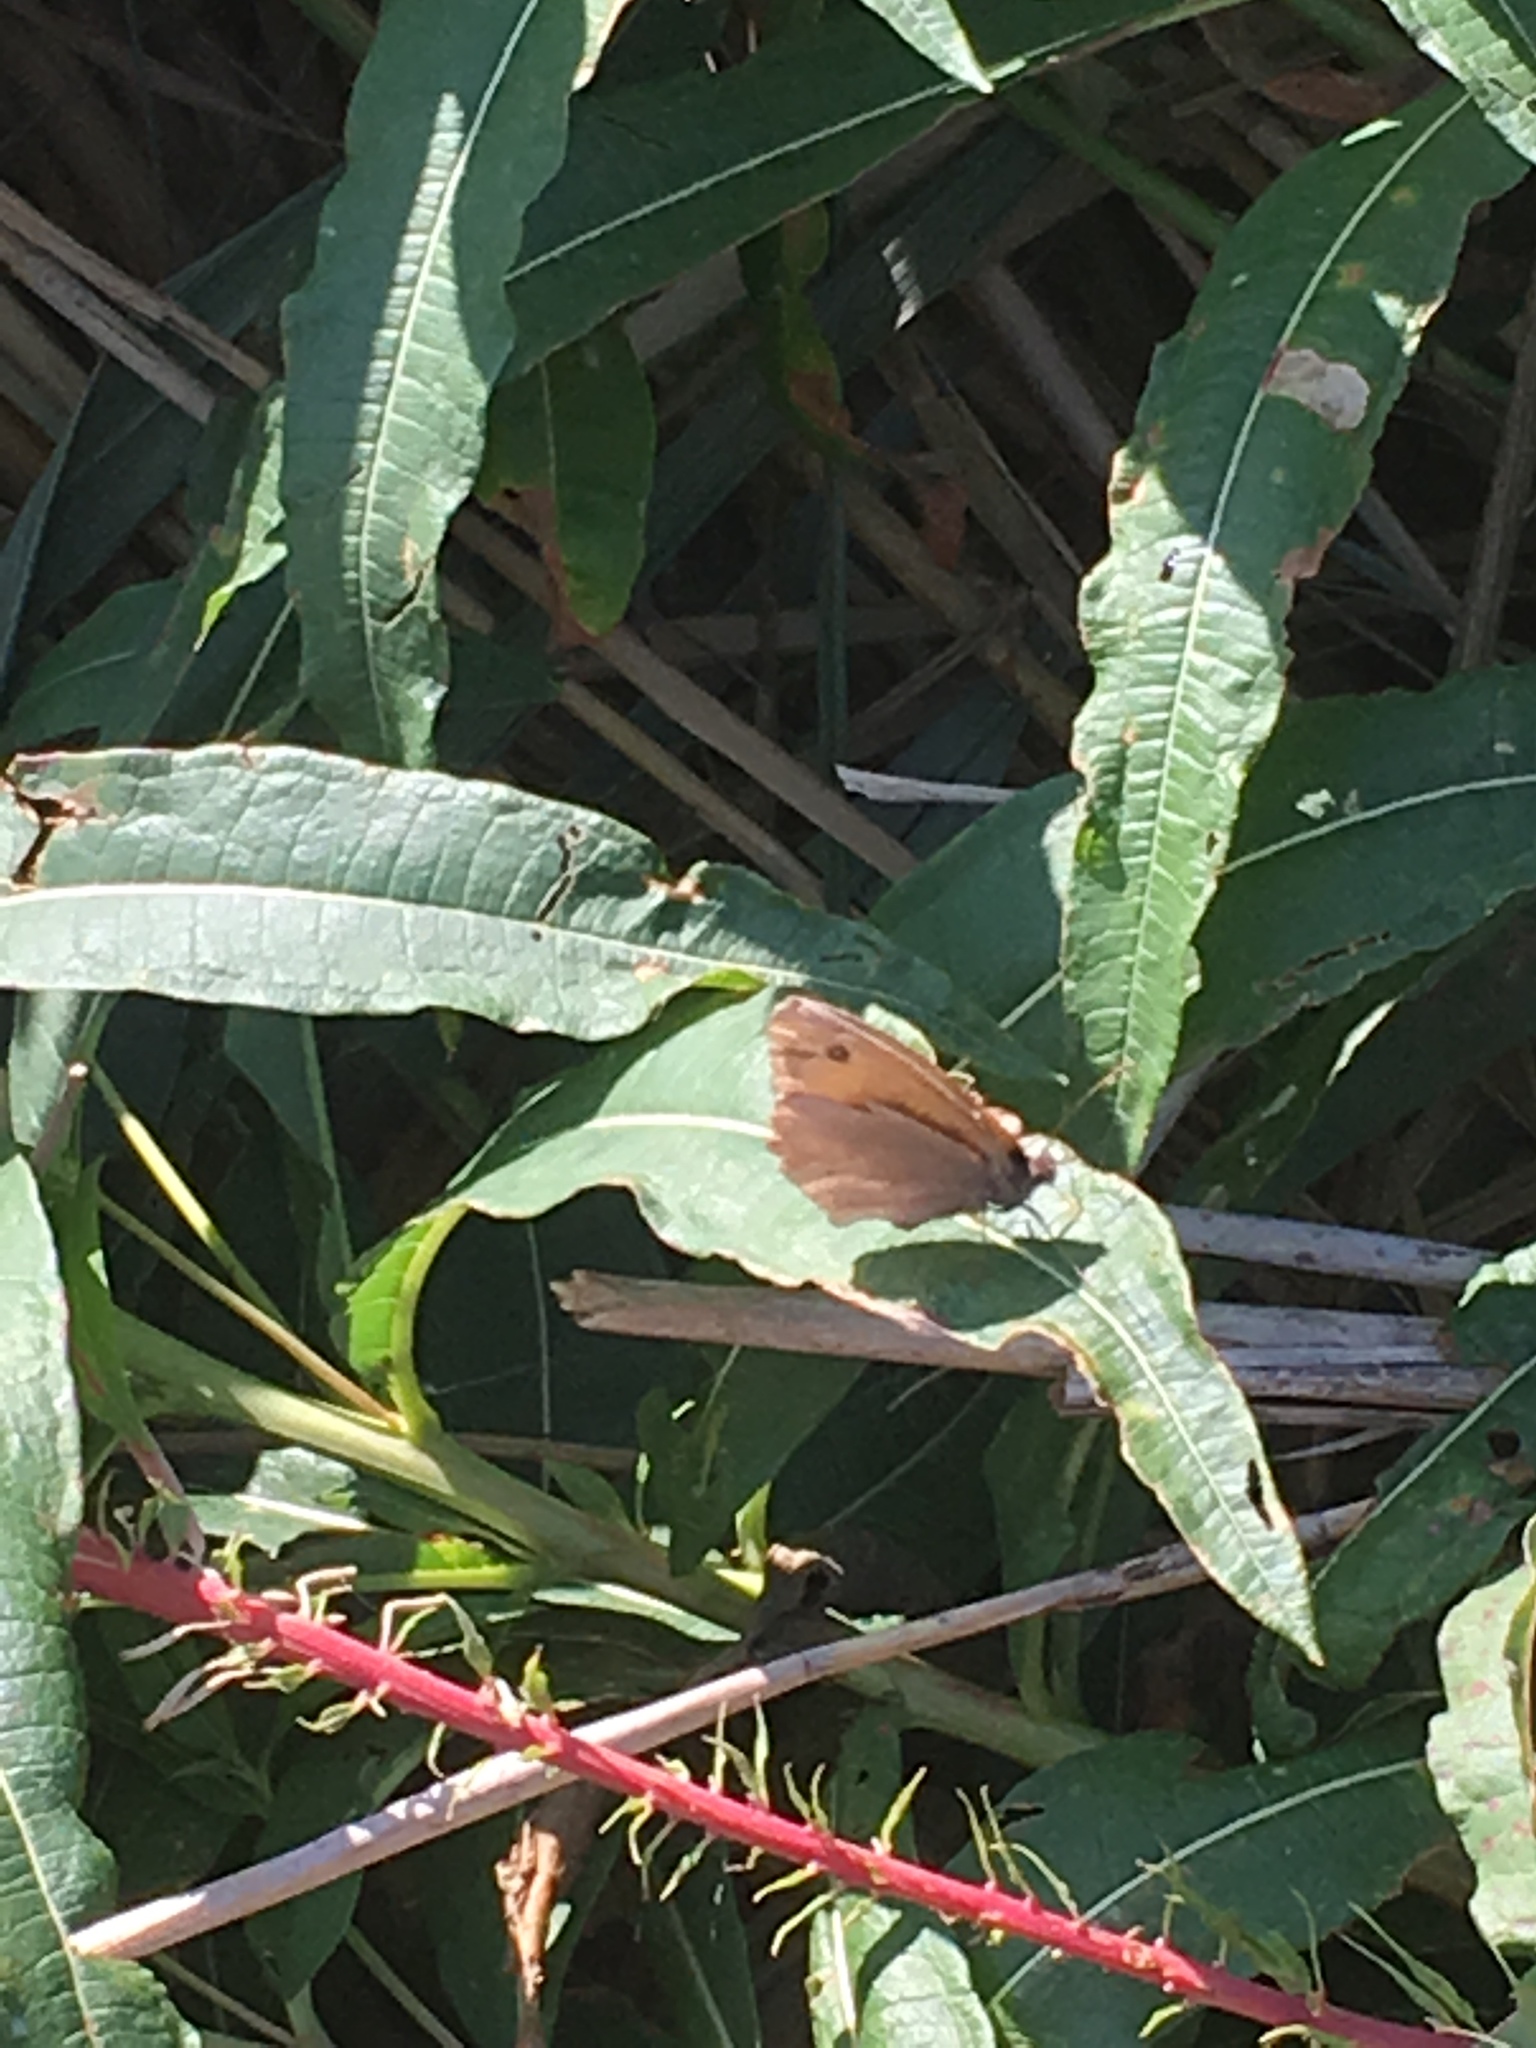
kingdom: Animalia
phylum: Arthropoda
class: Insecta
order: Lepidoptera
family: Nymphalidae
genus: Maniola
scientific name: Maniola jurtina
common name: Meadow brown
